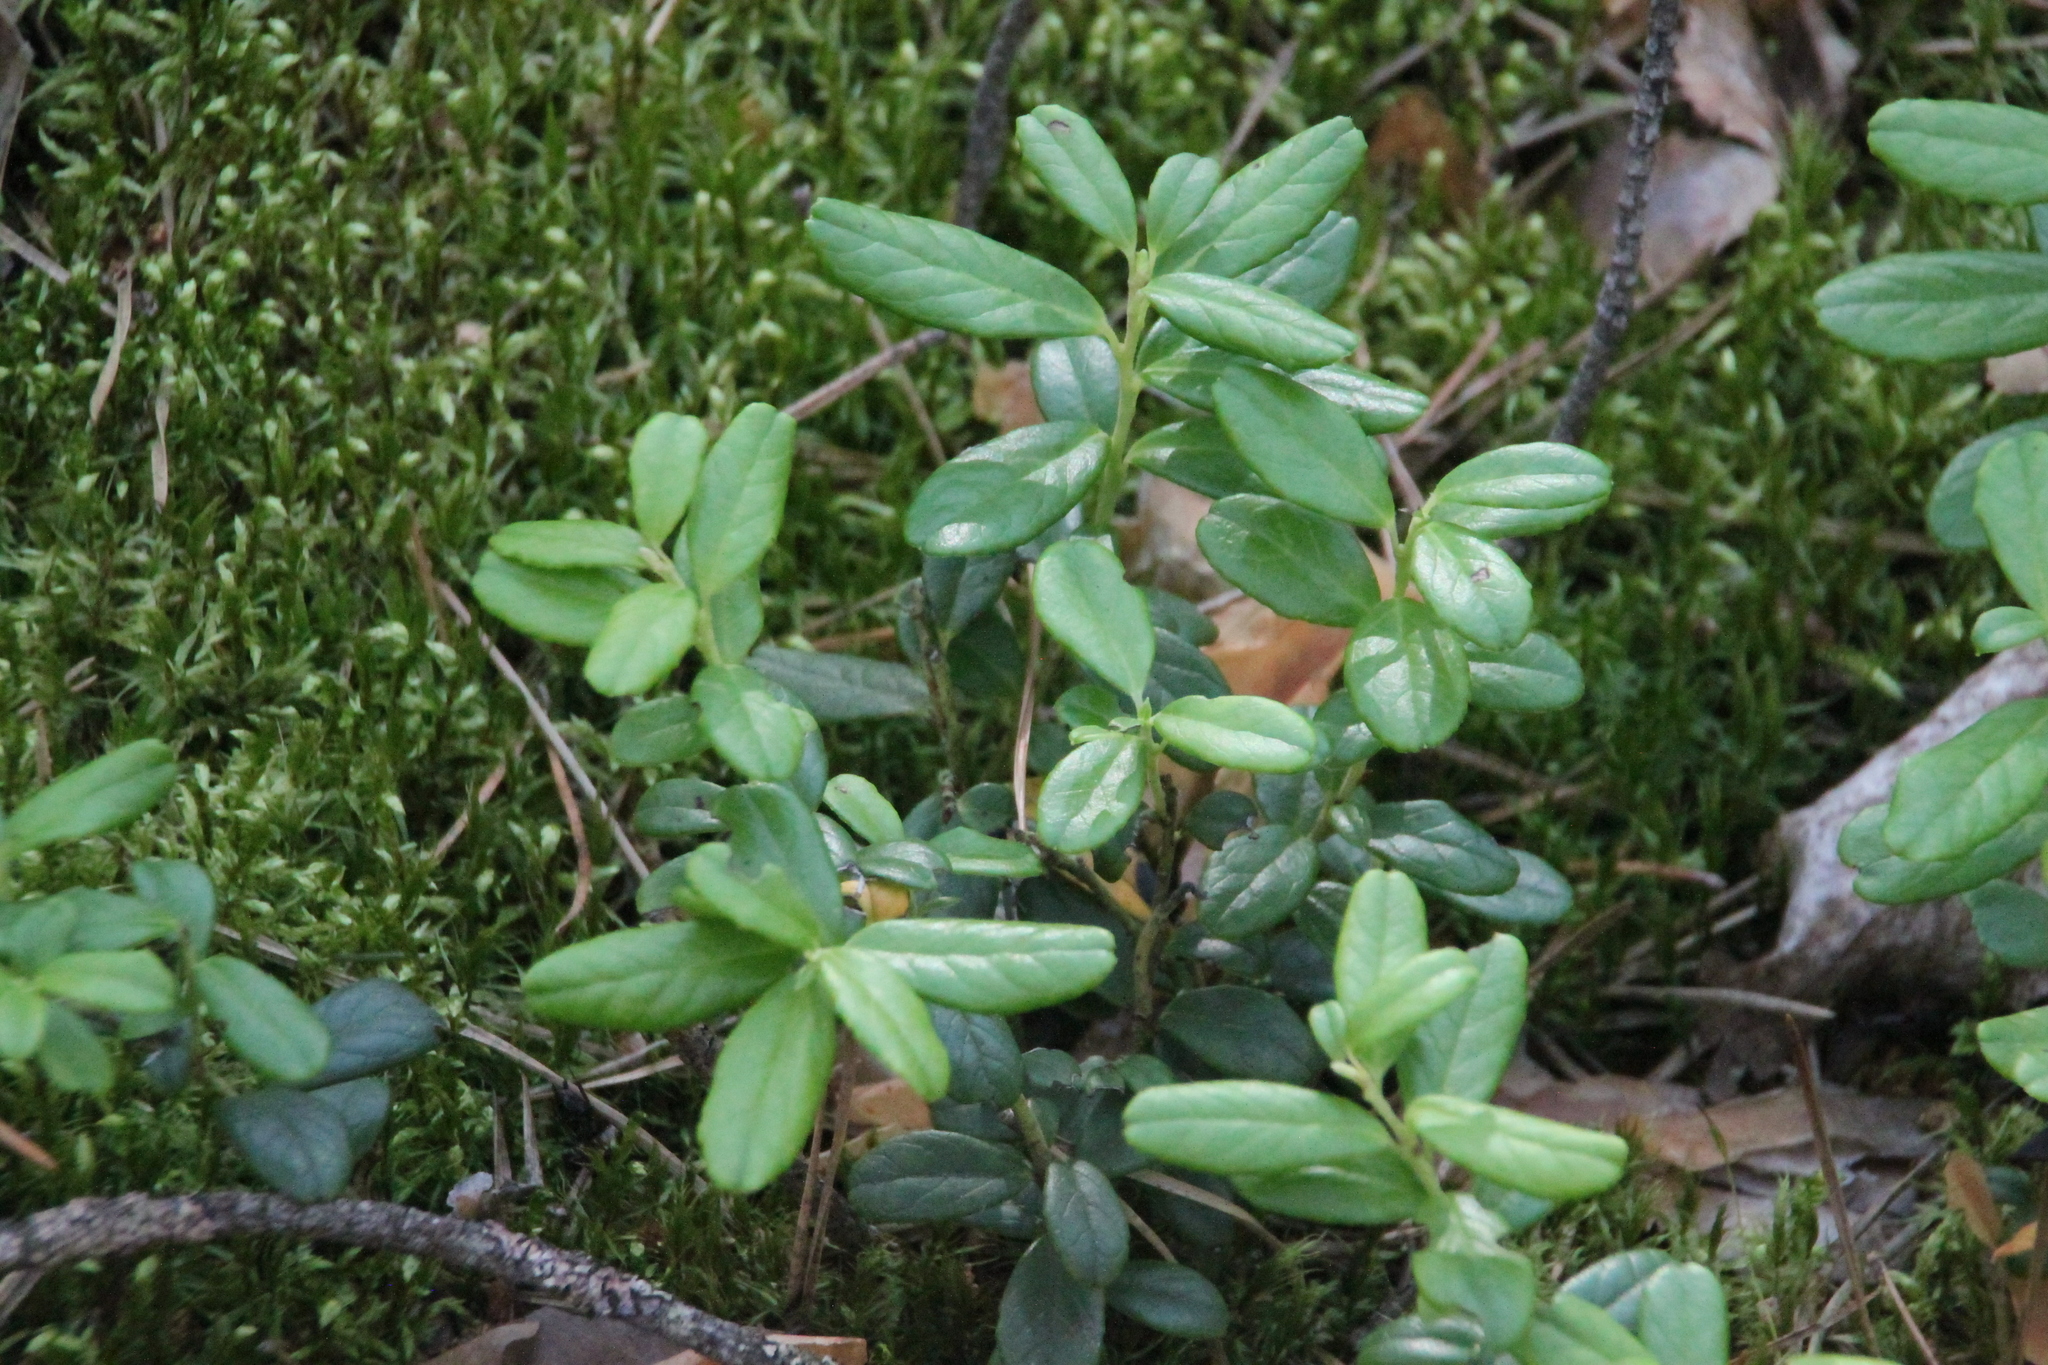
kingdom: Plantae
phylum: Tracheophyta
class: Magnoliopsida
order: Ericales
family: Ericaceae
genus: Vaccinium
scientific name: Vaccinium vitis-idaea
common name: Cowberry
